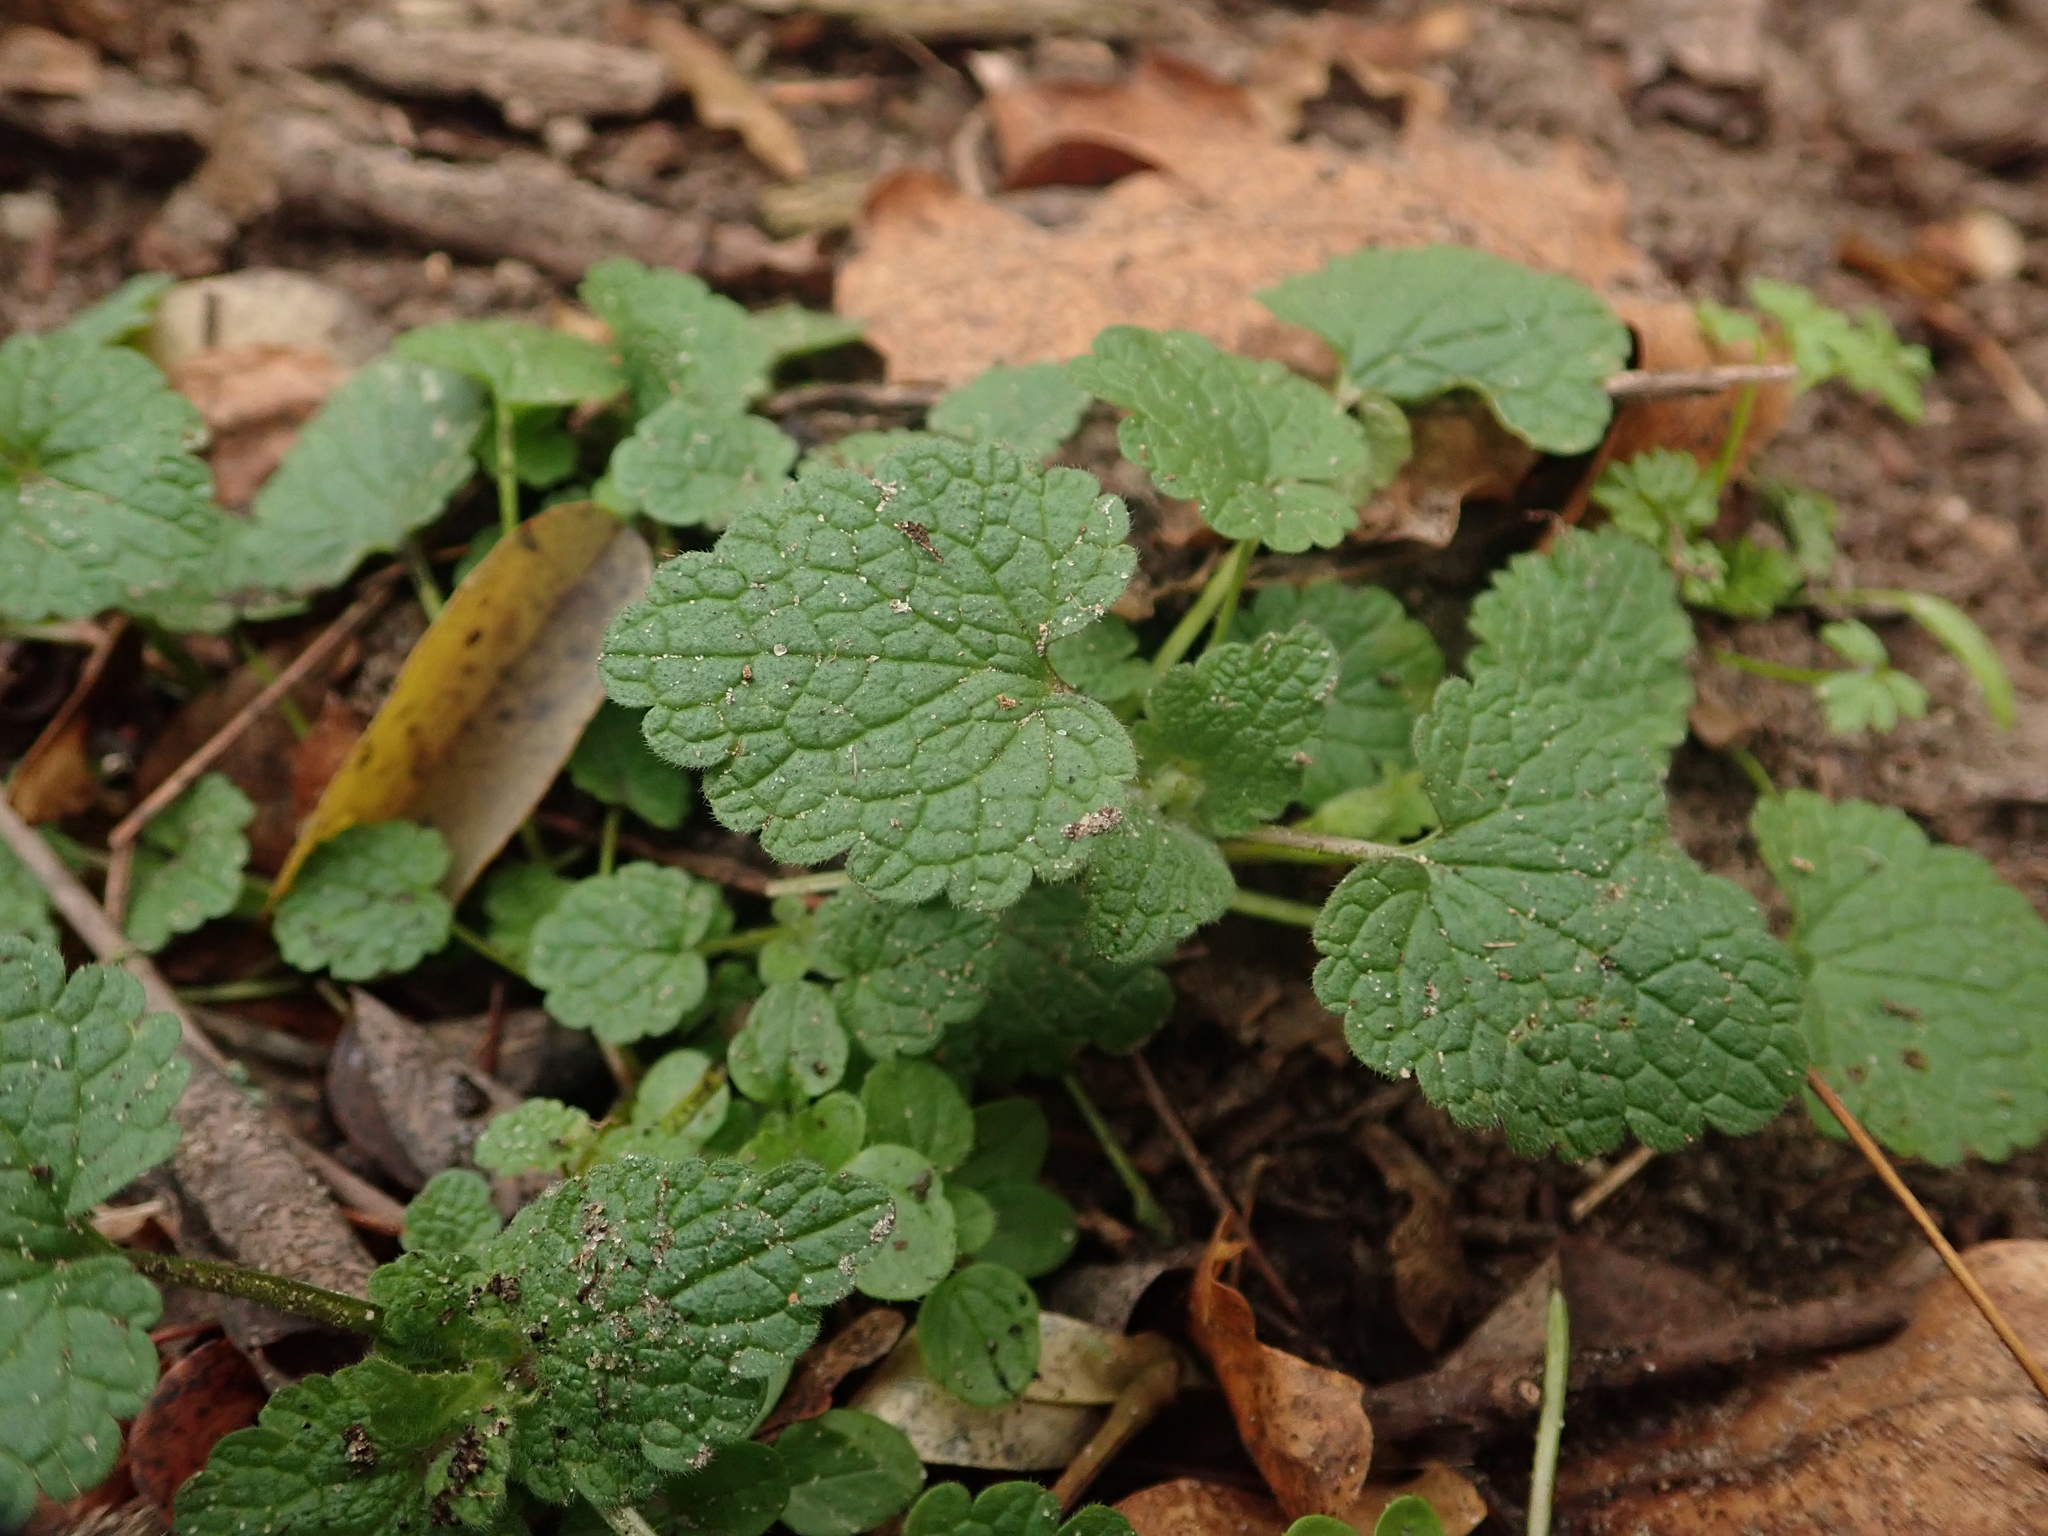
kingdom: Plantae
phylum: Tracheophyta
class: Magnoliopsida
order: Lamiales
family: Lamiaceae
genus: Lamium
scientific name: Lamium purpureum
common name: Red dead-nettle
